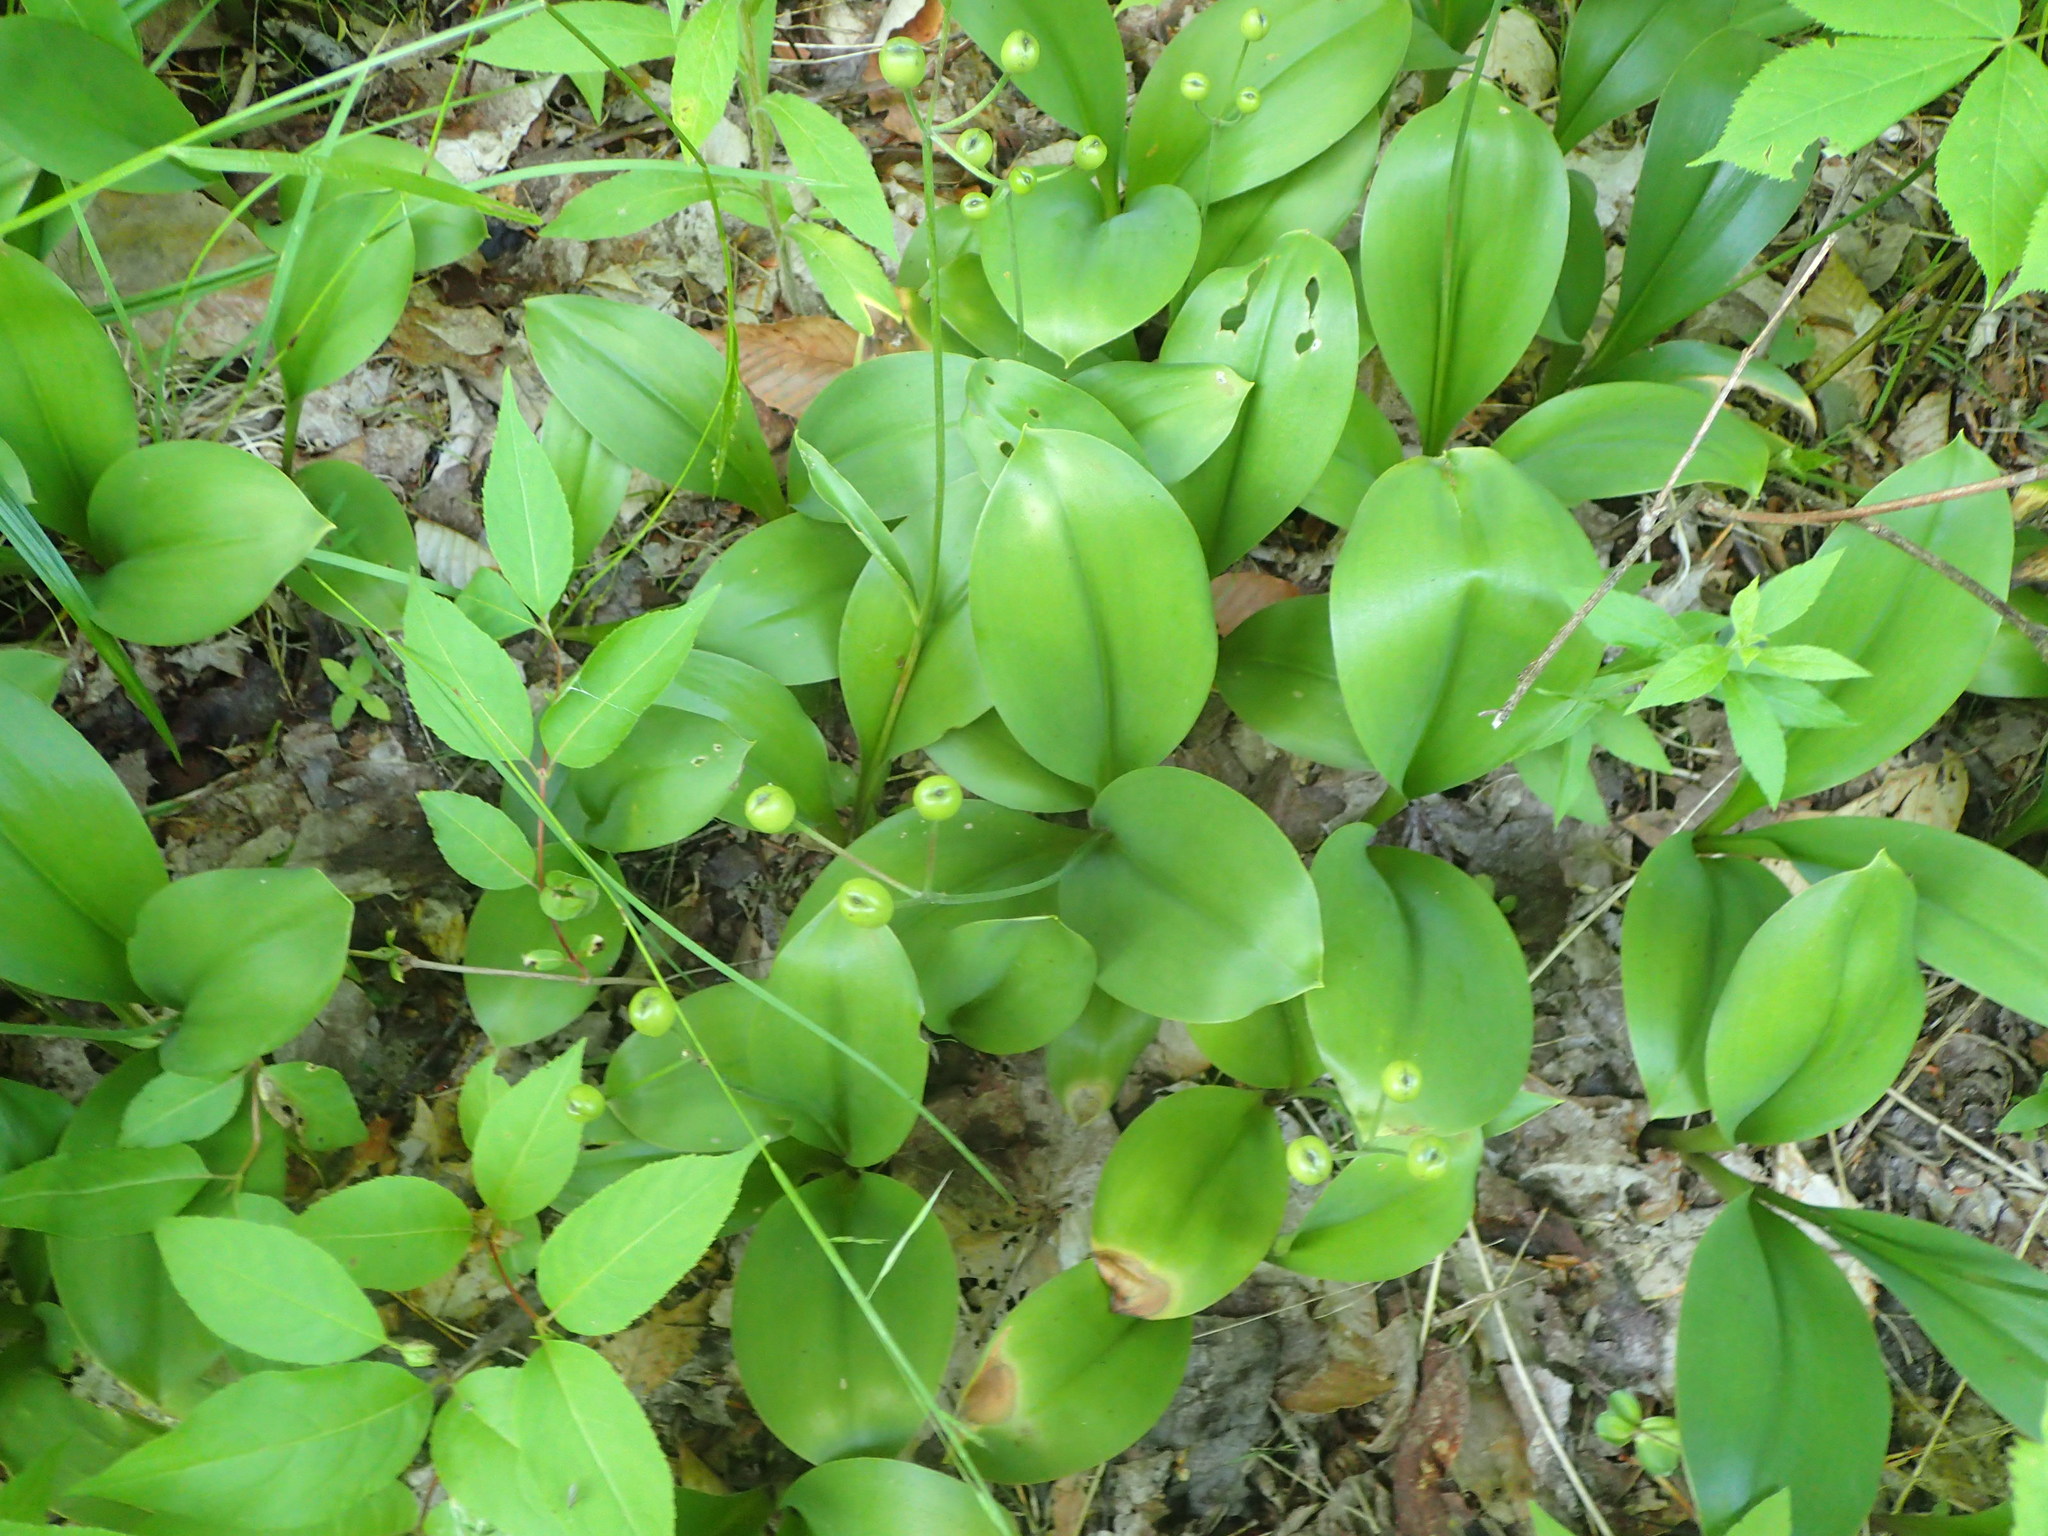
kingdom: Plantae
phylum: Tracheophyta
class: Liliopsida
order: Liliales
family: Liliaceae
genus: Clintonia
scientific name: Clintonia borealis
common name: Yellow clintonia
